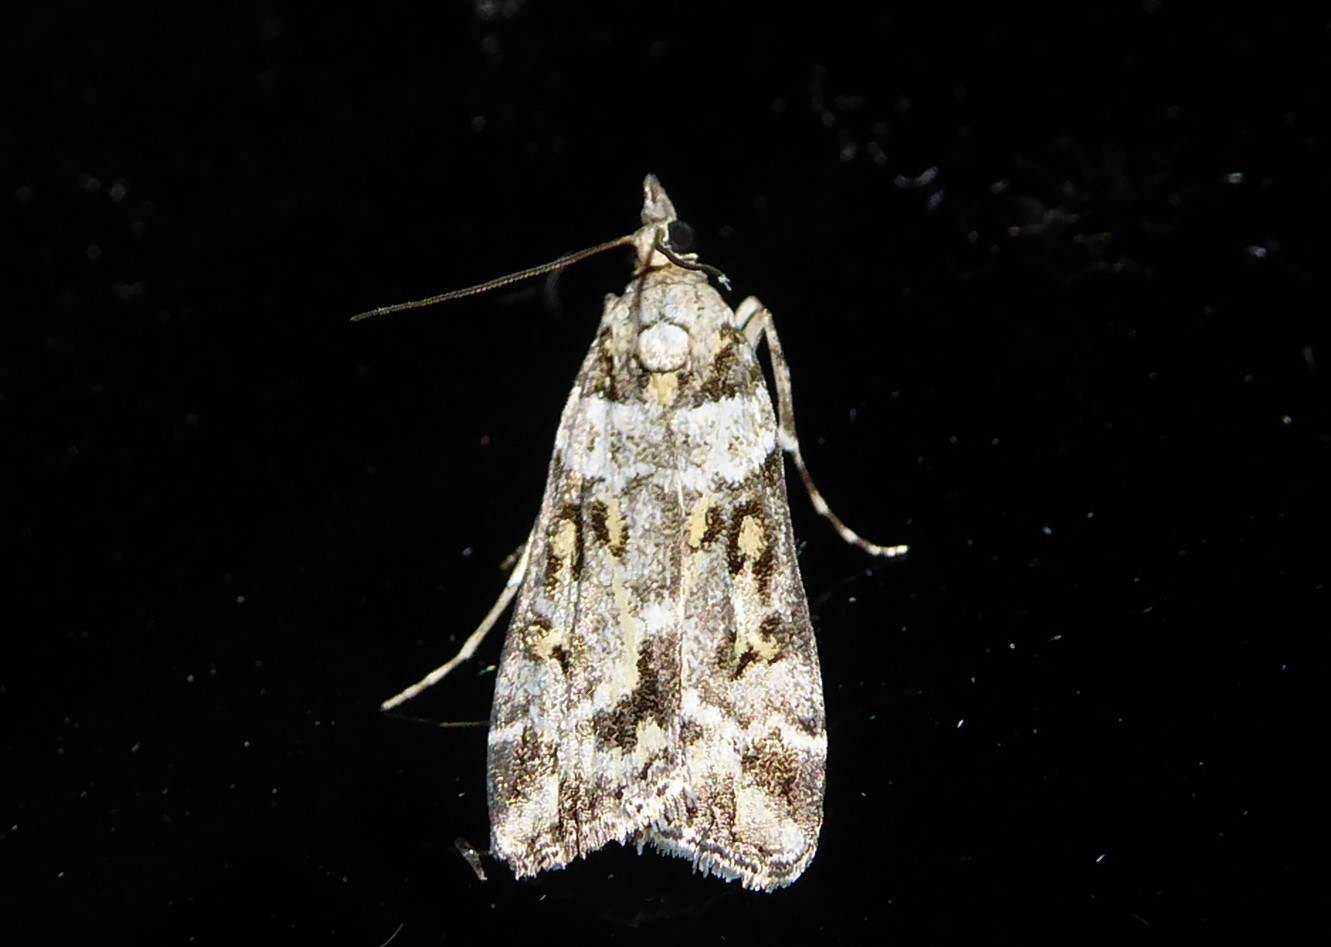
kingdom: Animalia
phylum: Arthropoda
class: Insecta
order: Lepidoptera
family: Crambidae
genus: Eudonia
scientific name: Eudonia diphtheralis
